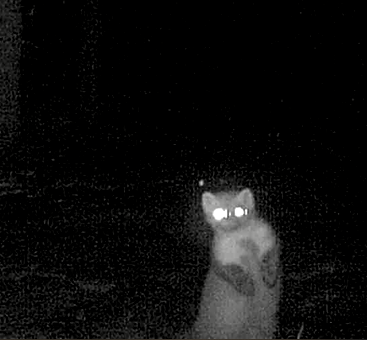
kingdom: Animalia
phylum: Chordata
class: Mammalia
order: Carnivora
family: Mustelidae
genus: Martes
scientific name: Martes foina
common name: Beech marten
